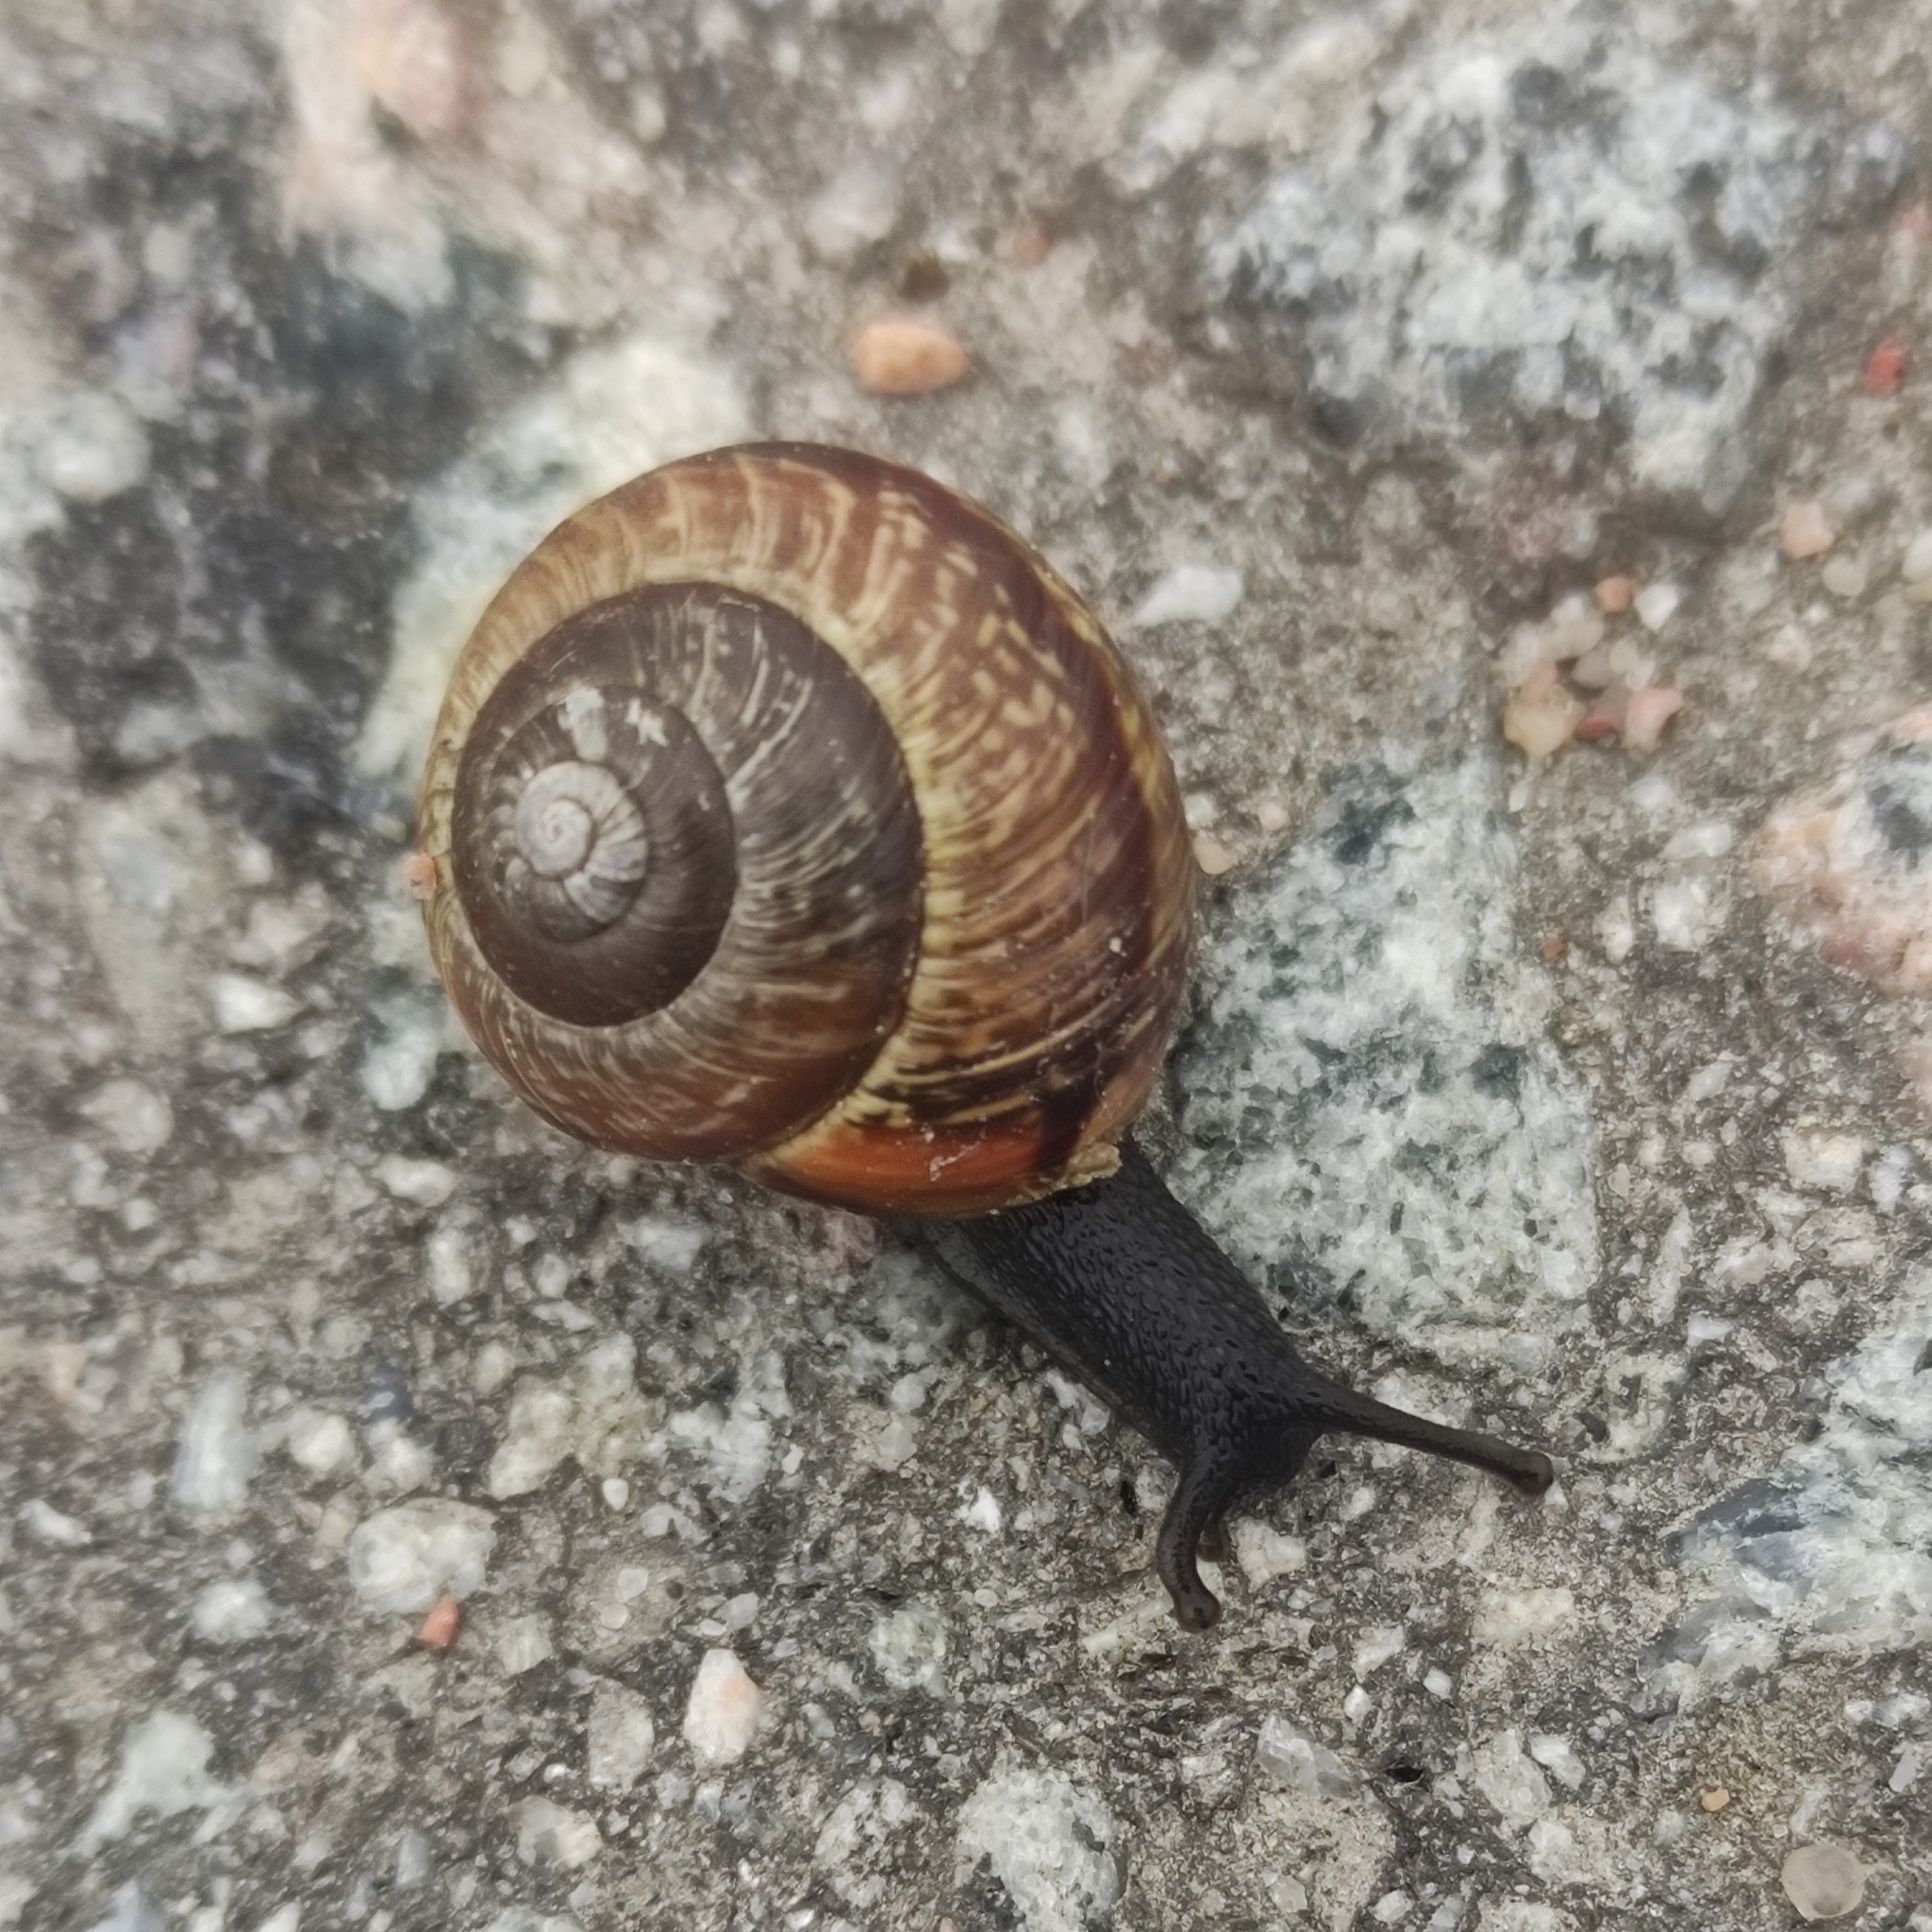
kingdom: Animalia
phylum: Mollusca
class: Gastropoda
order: Stylommatophora
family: Helicidae
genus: Arianta
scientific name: Arianta arbustorum
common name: Copse snail
